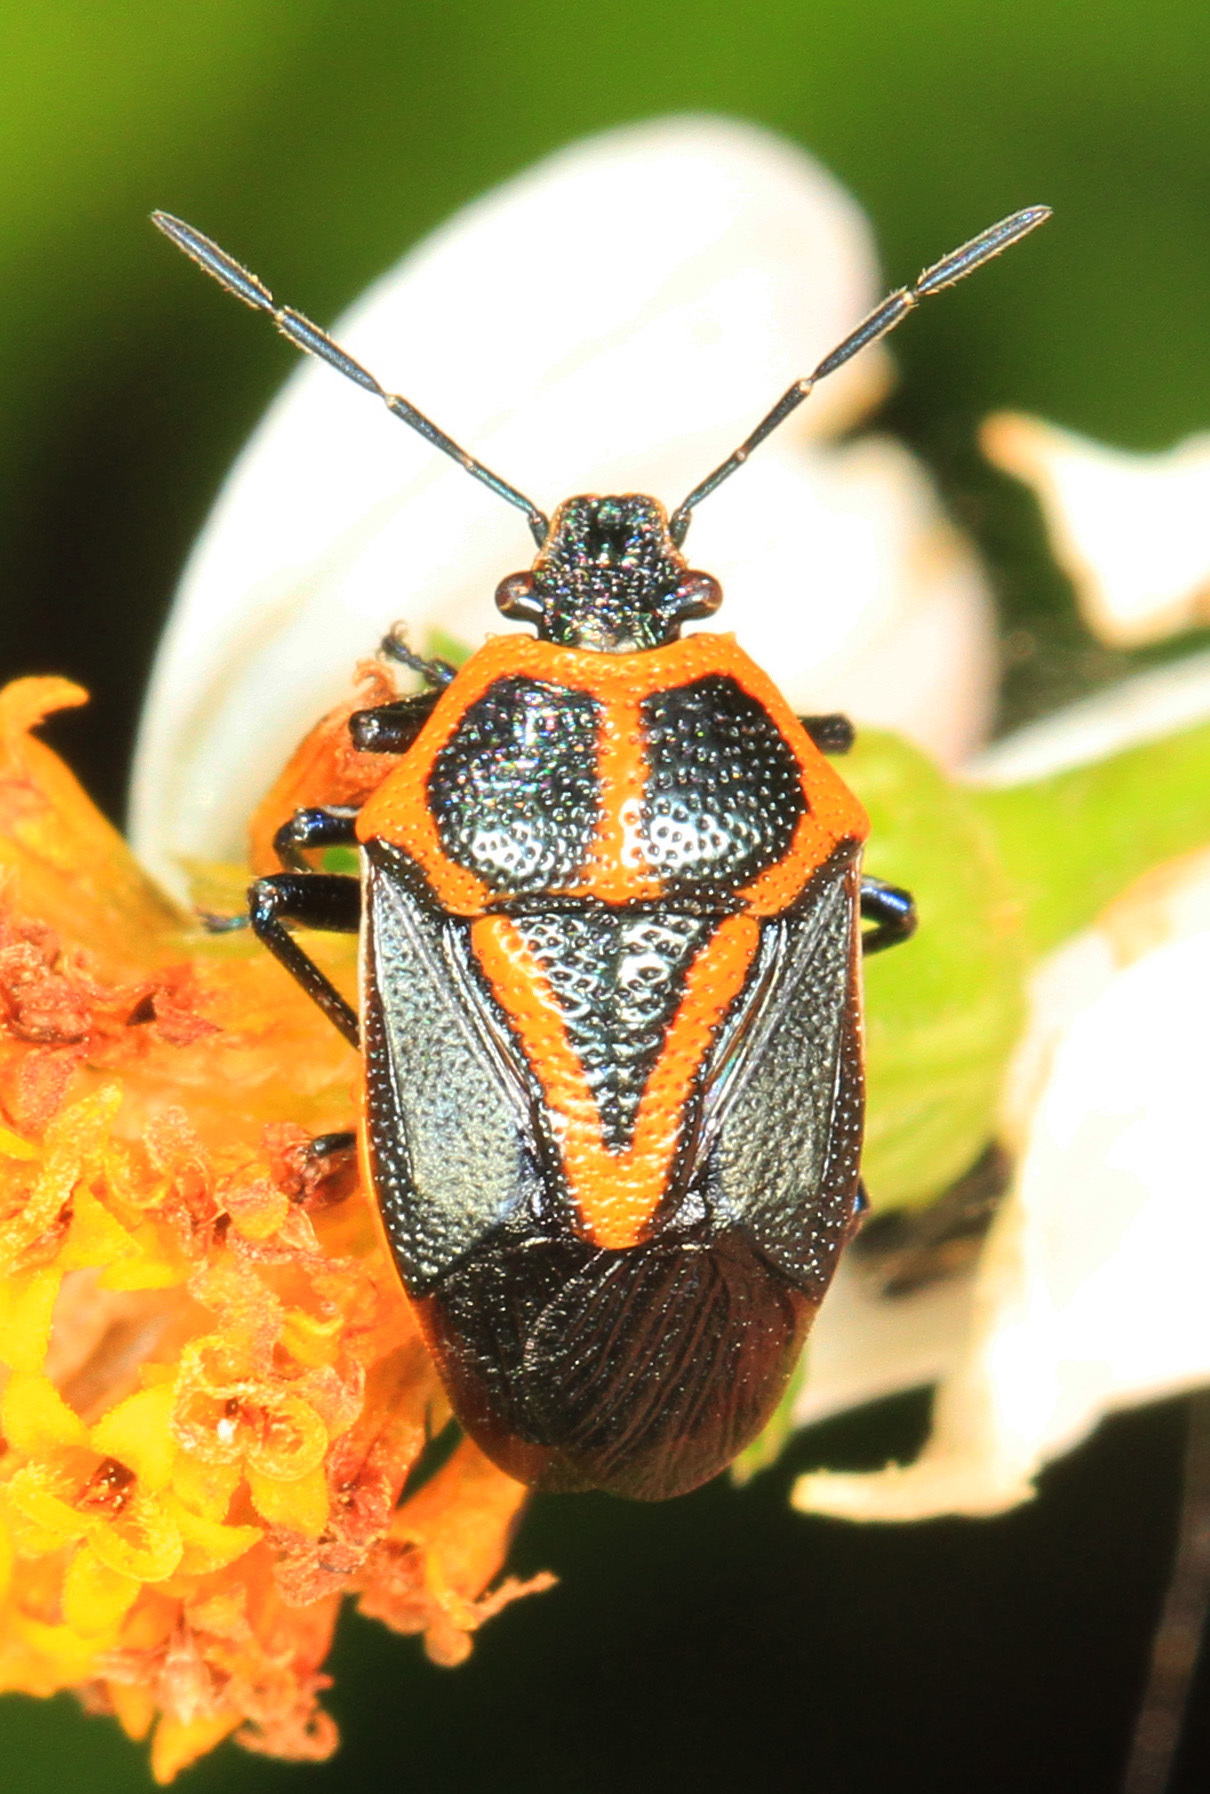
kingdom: Animalia
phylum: Arthropoda
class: Insecta
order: Hemiptera
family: Pentatomidae
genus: Perillus
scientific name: Perillus strigipes
